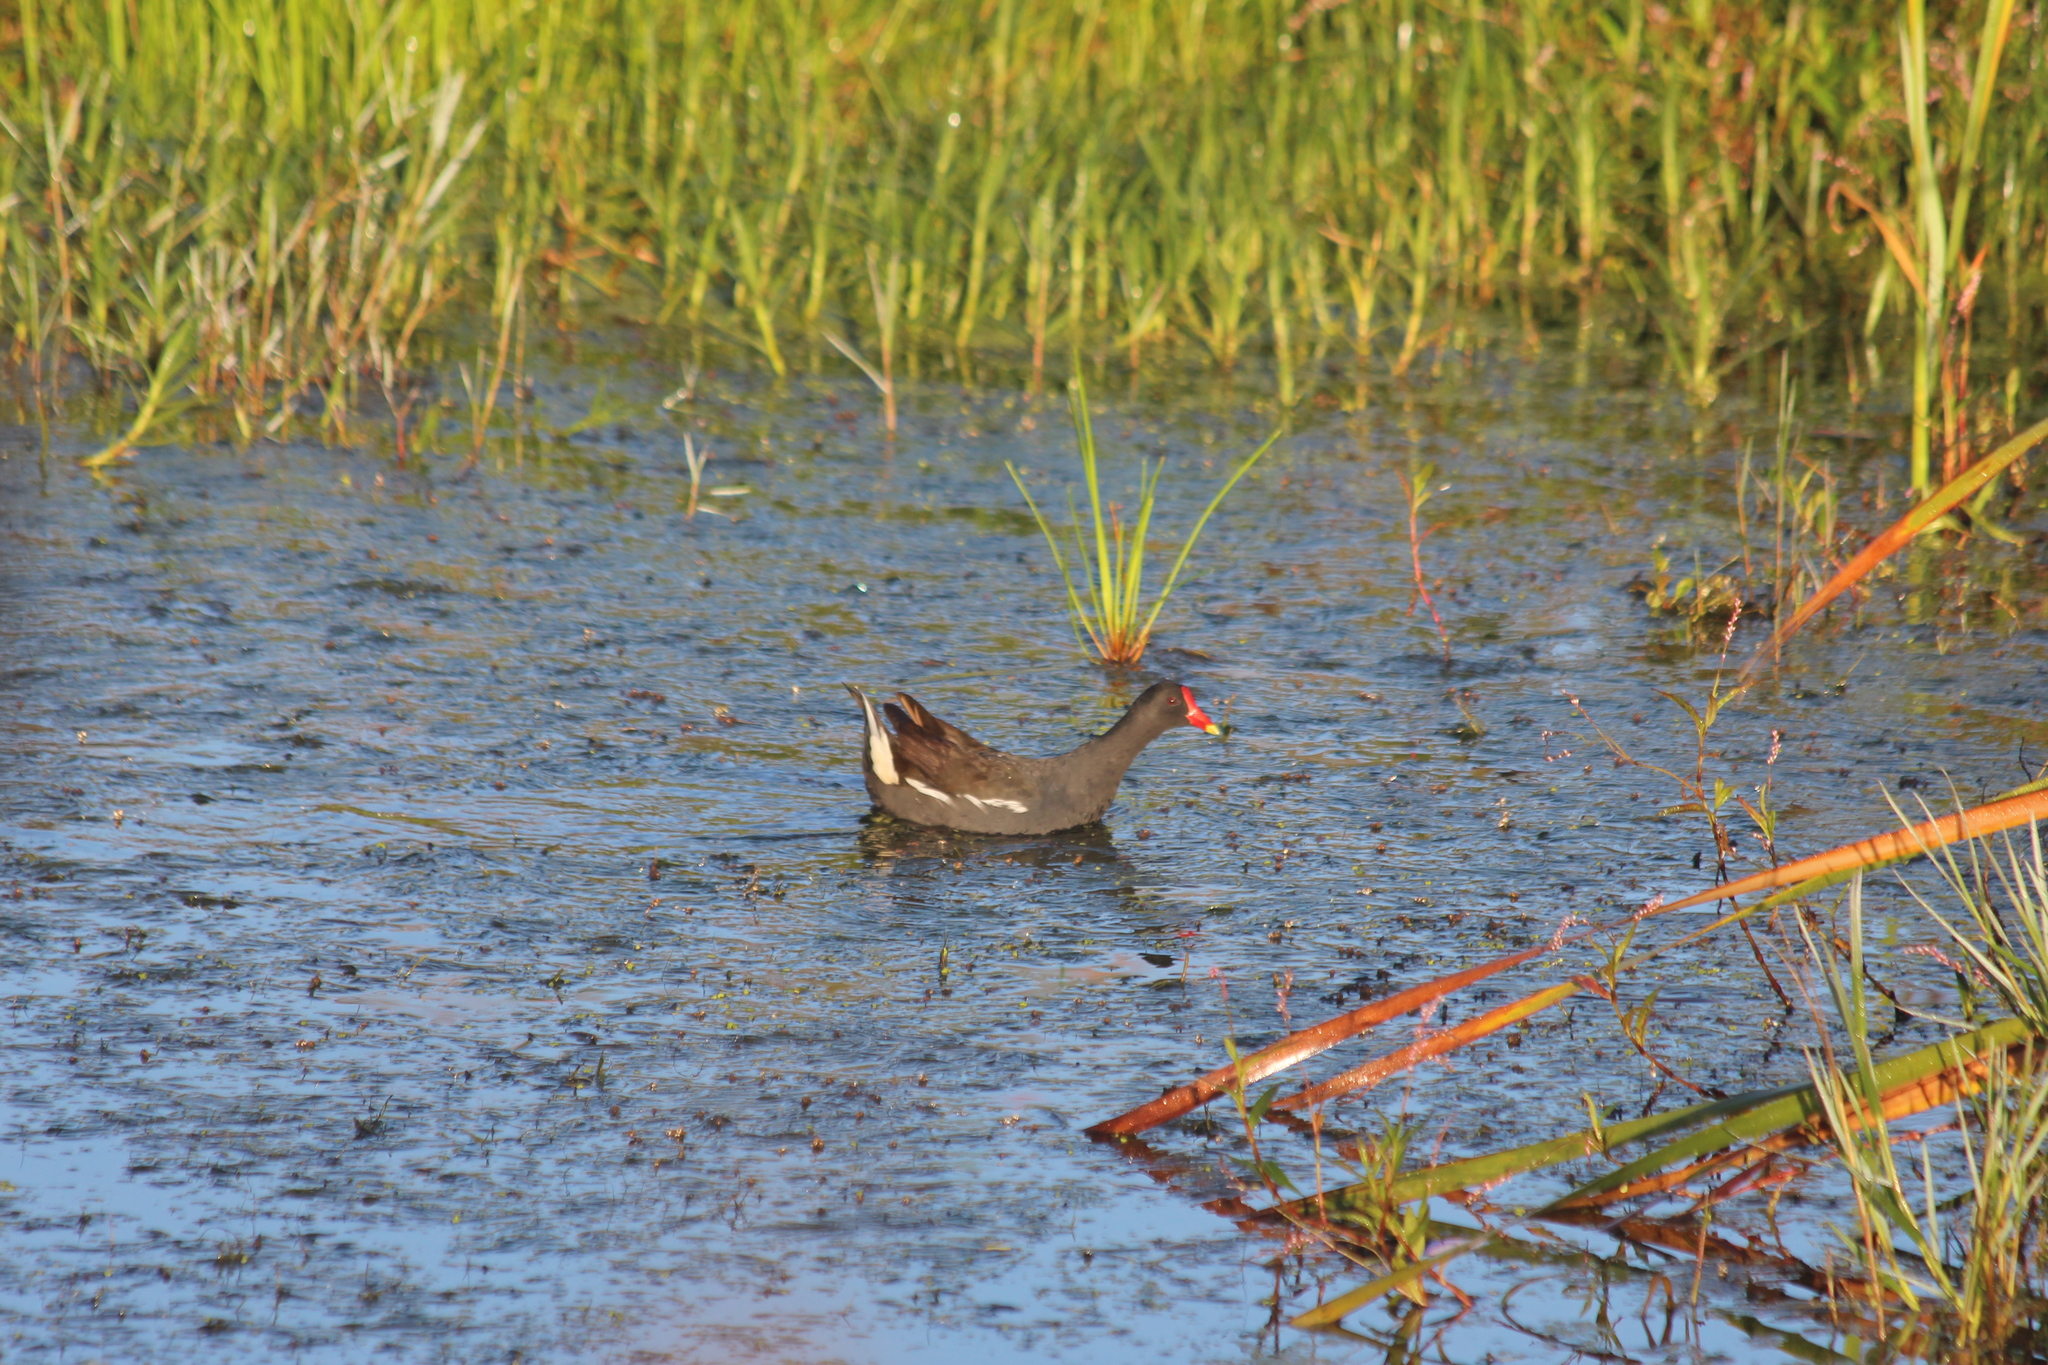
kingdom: Animalia
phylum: Chordata
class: Aves
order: Gruiformes
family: Rallidae
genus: Gallinula
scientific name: Gallinula chloropus
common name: Common moorhen
